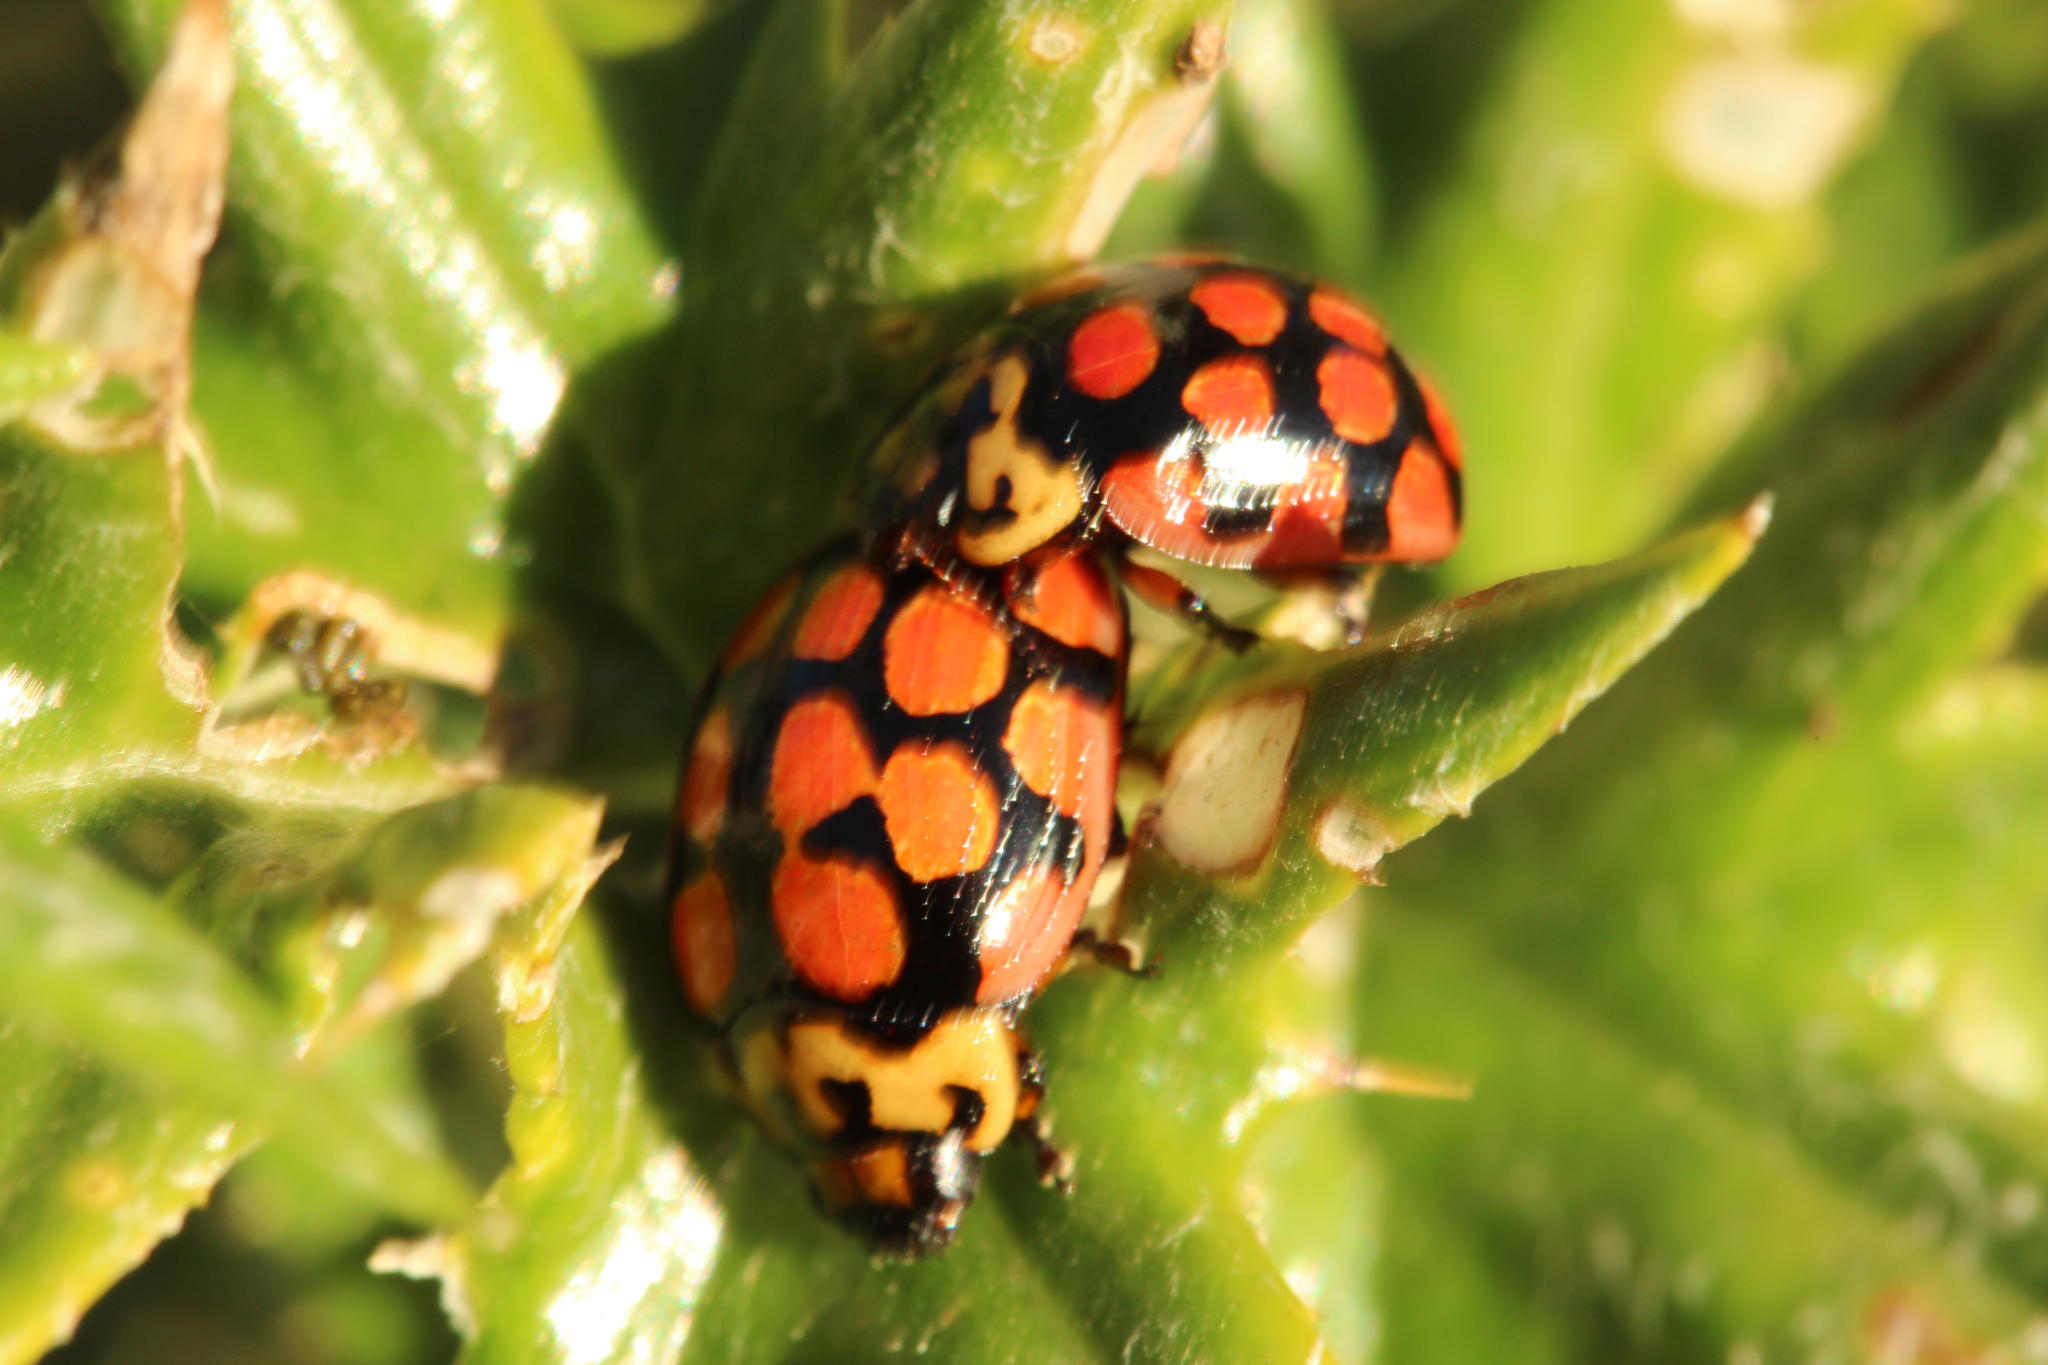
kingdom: Animalia
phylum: Arthropoda
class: Insecta
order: Coleoptera
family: Coccinellidae
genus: Cheilomenes
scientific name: Cheilomenes lunata
